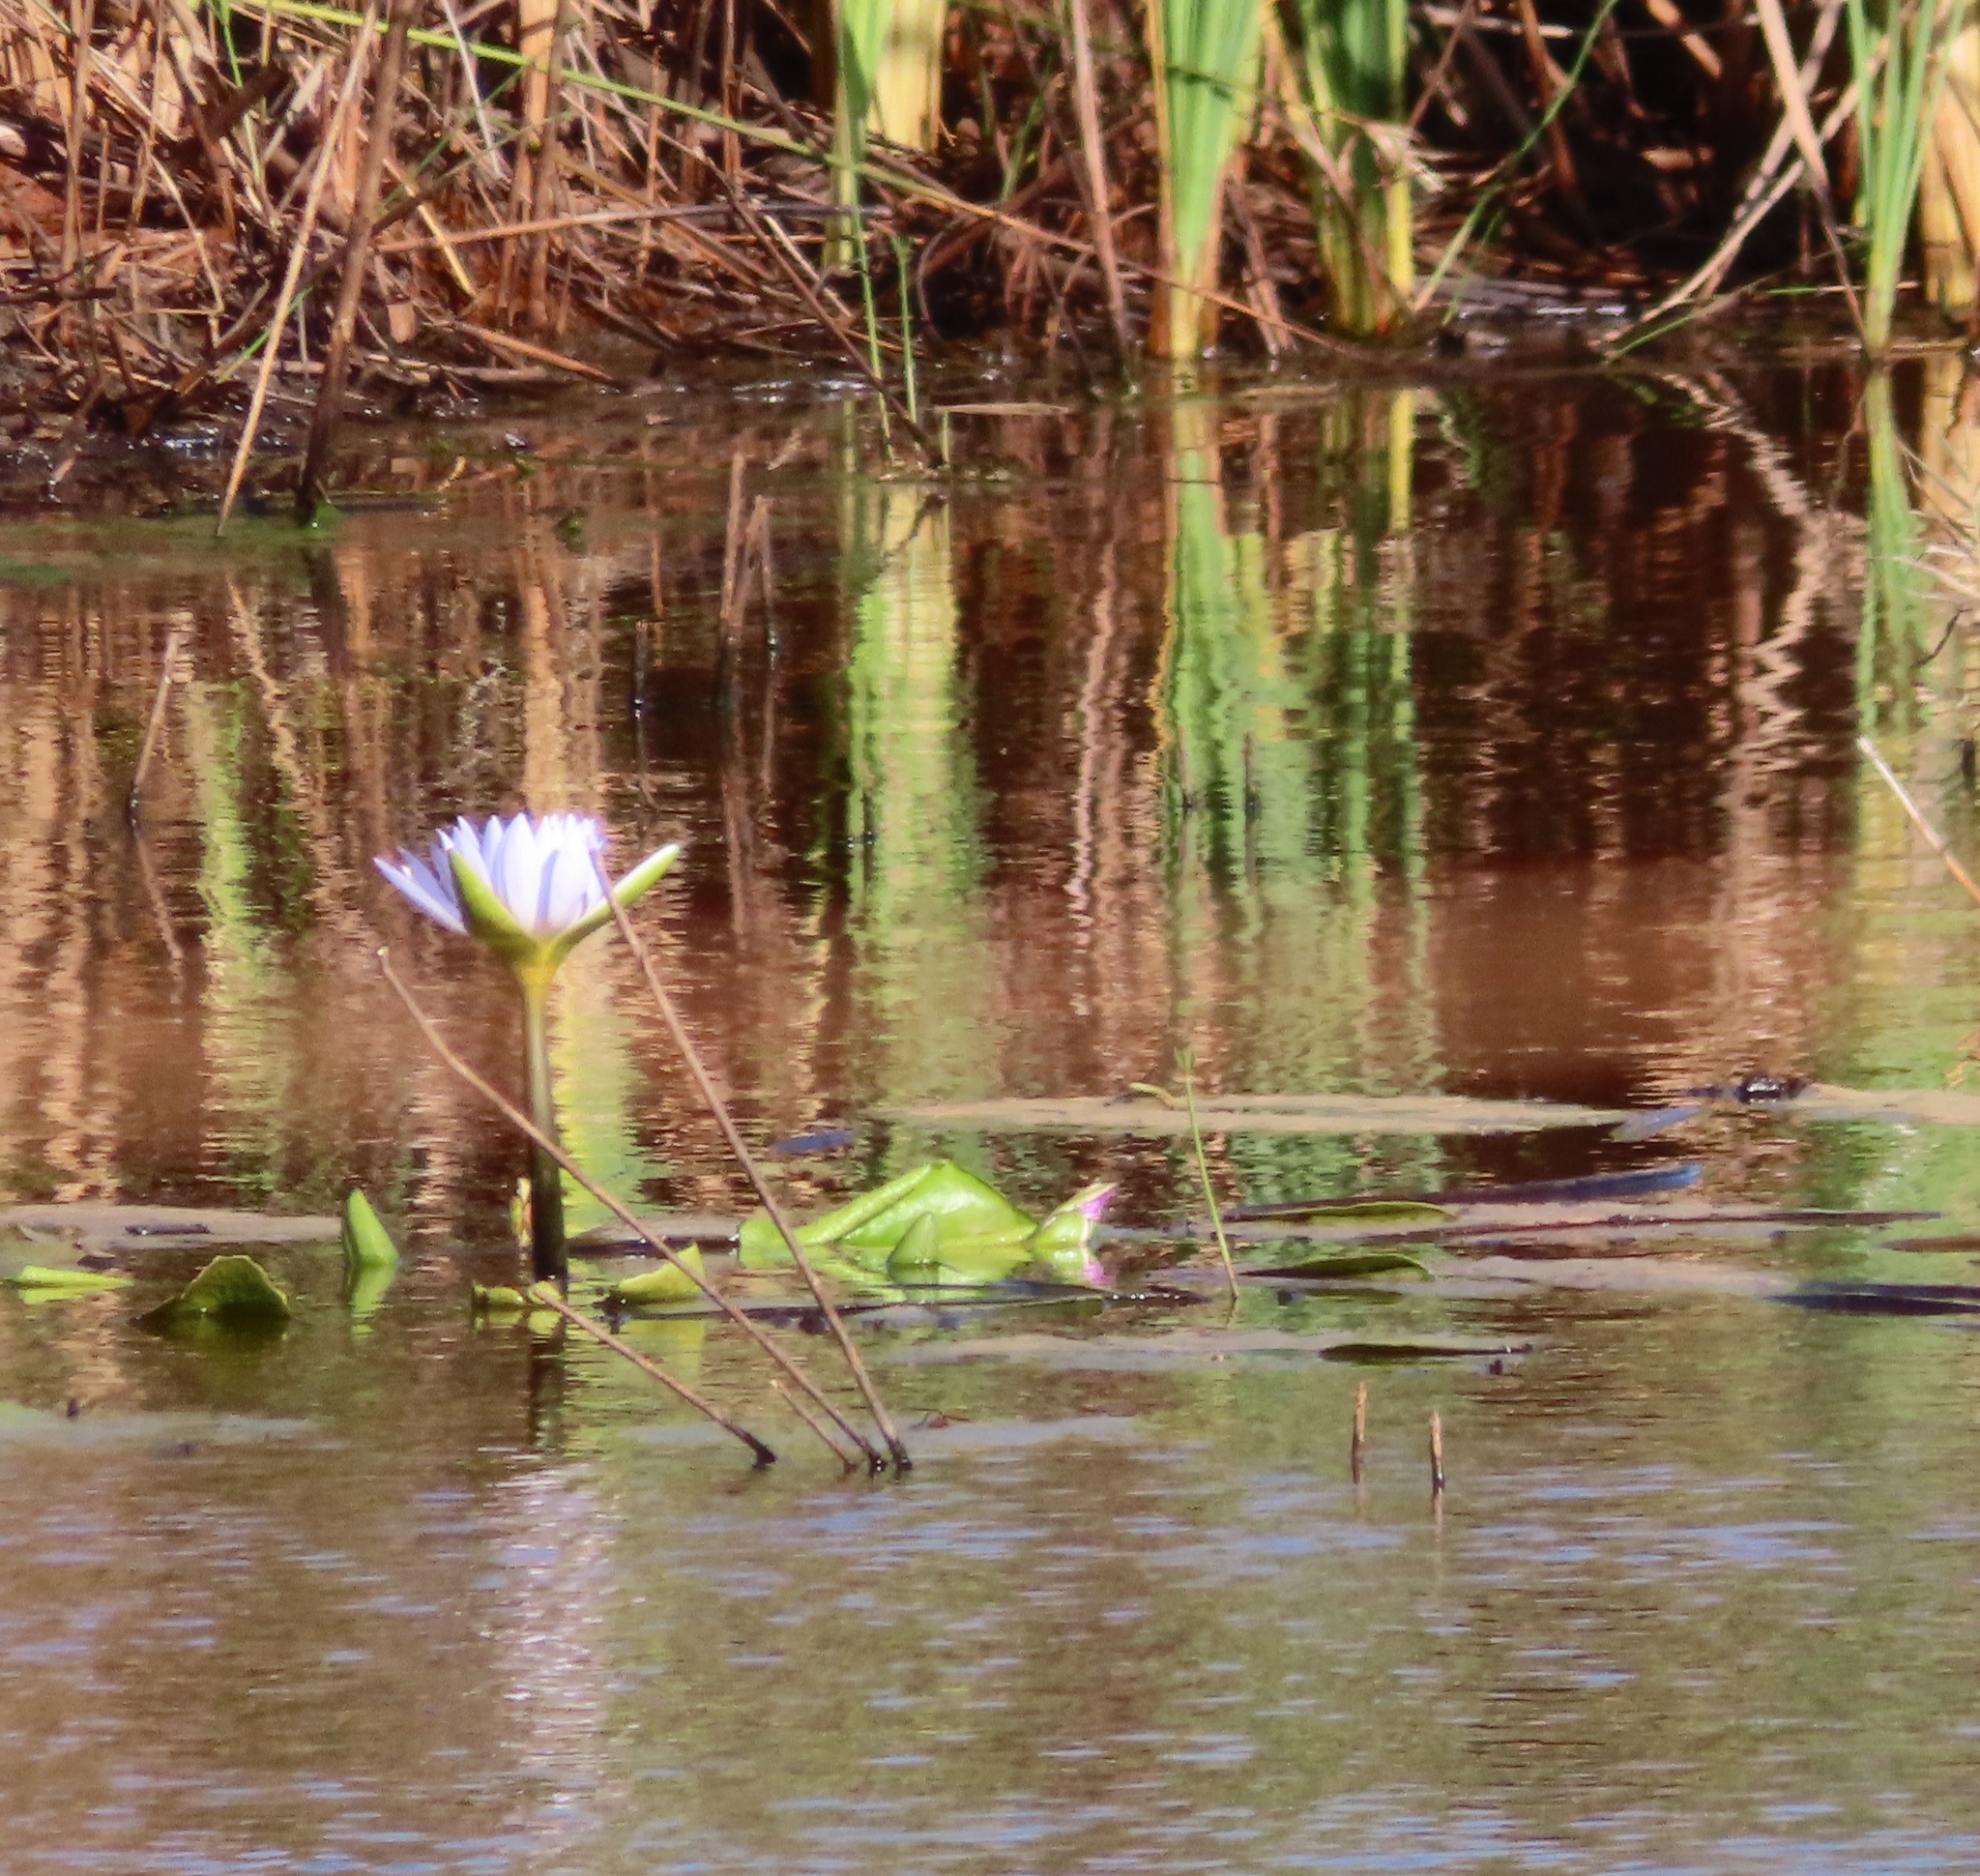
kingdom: Plantae
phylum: Tracheophyta
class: Magnoliopsida
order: Nymphaeales
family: Nymphaeaceae
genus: Nymphaea
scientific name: Nymphaea nouchali
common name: Blue lotus
